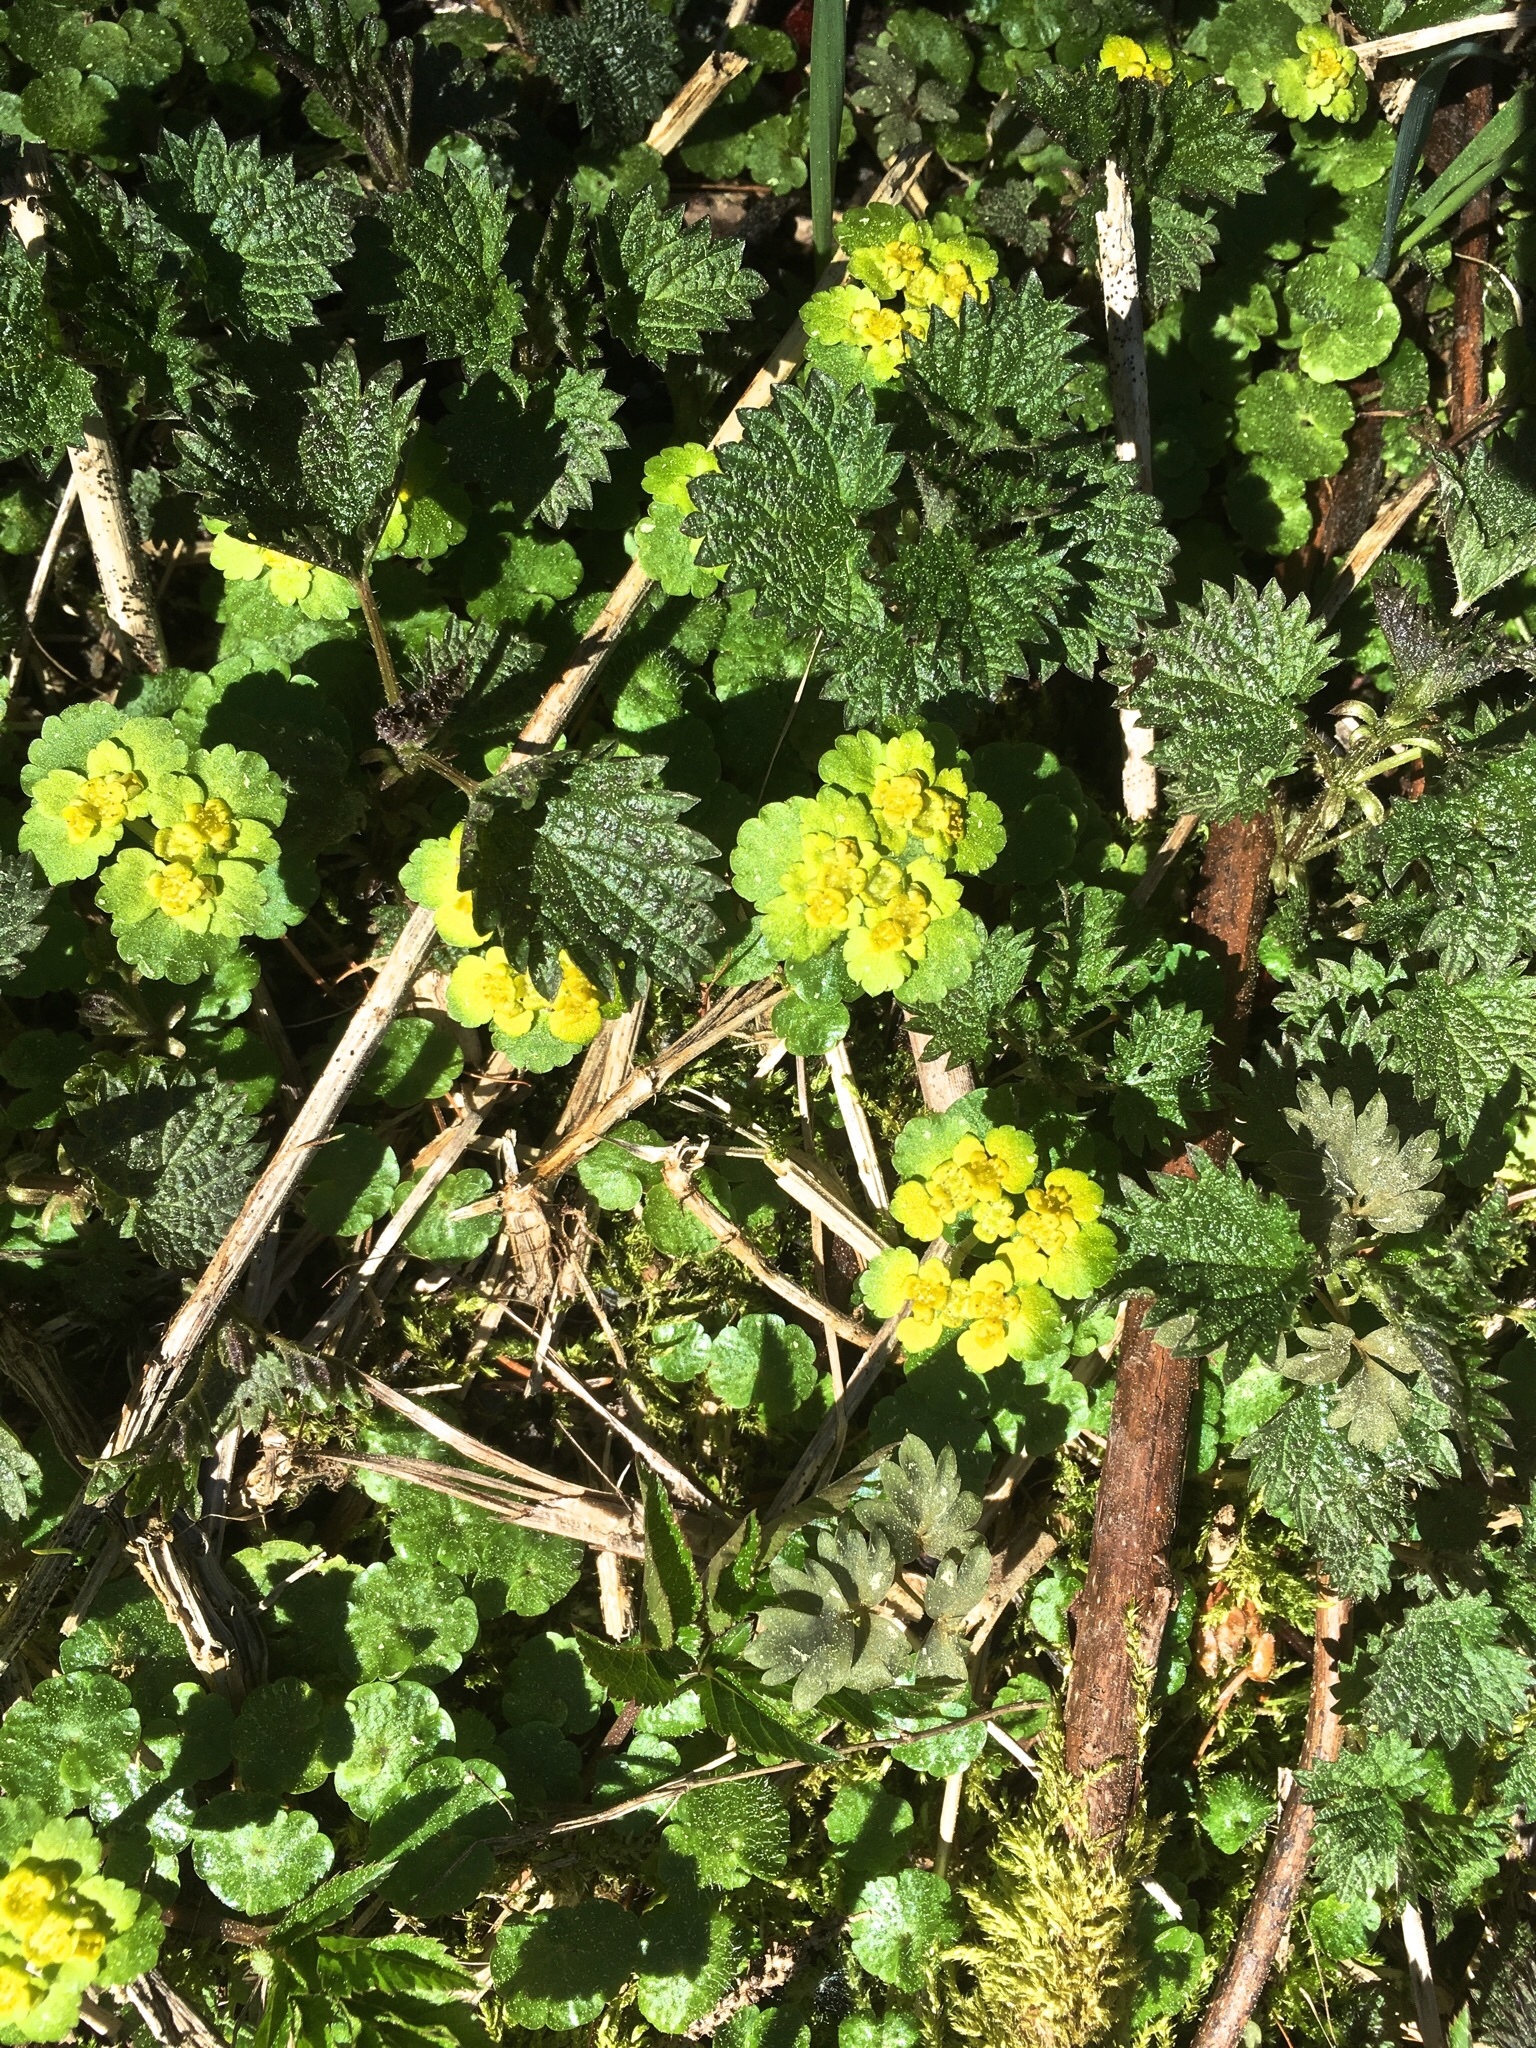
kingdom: Plantae
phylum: Tracheophyta
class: Magnoliopsida
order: Saxifragales
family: Saxifragaceae
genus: Chrysosplenium
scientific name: Chrysosplenium alternifolium
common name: Alternate-leaved golden-saxifrage
